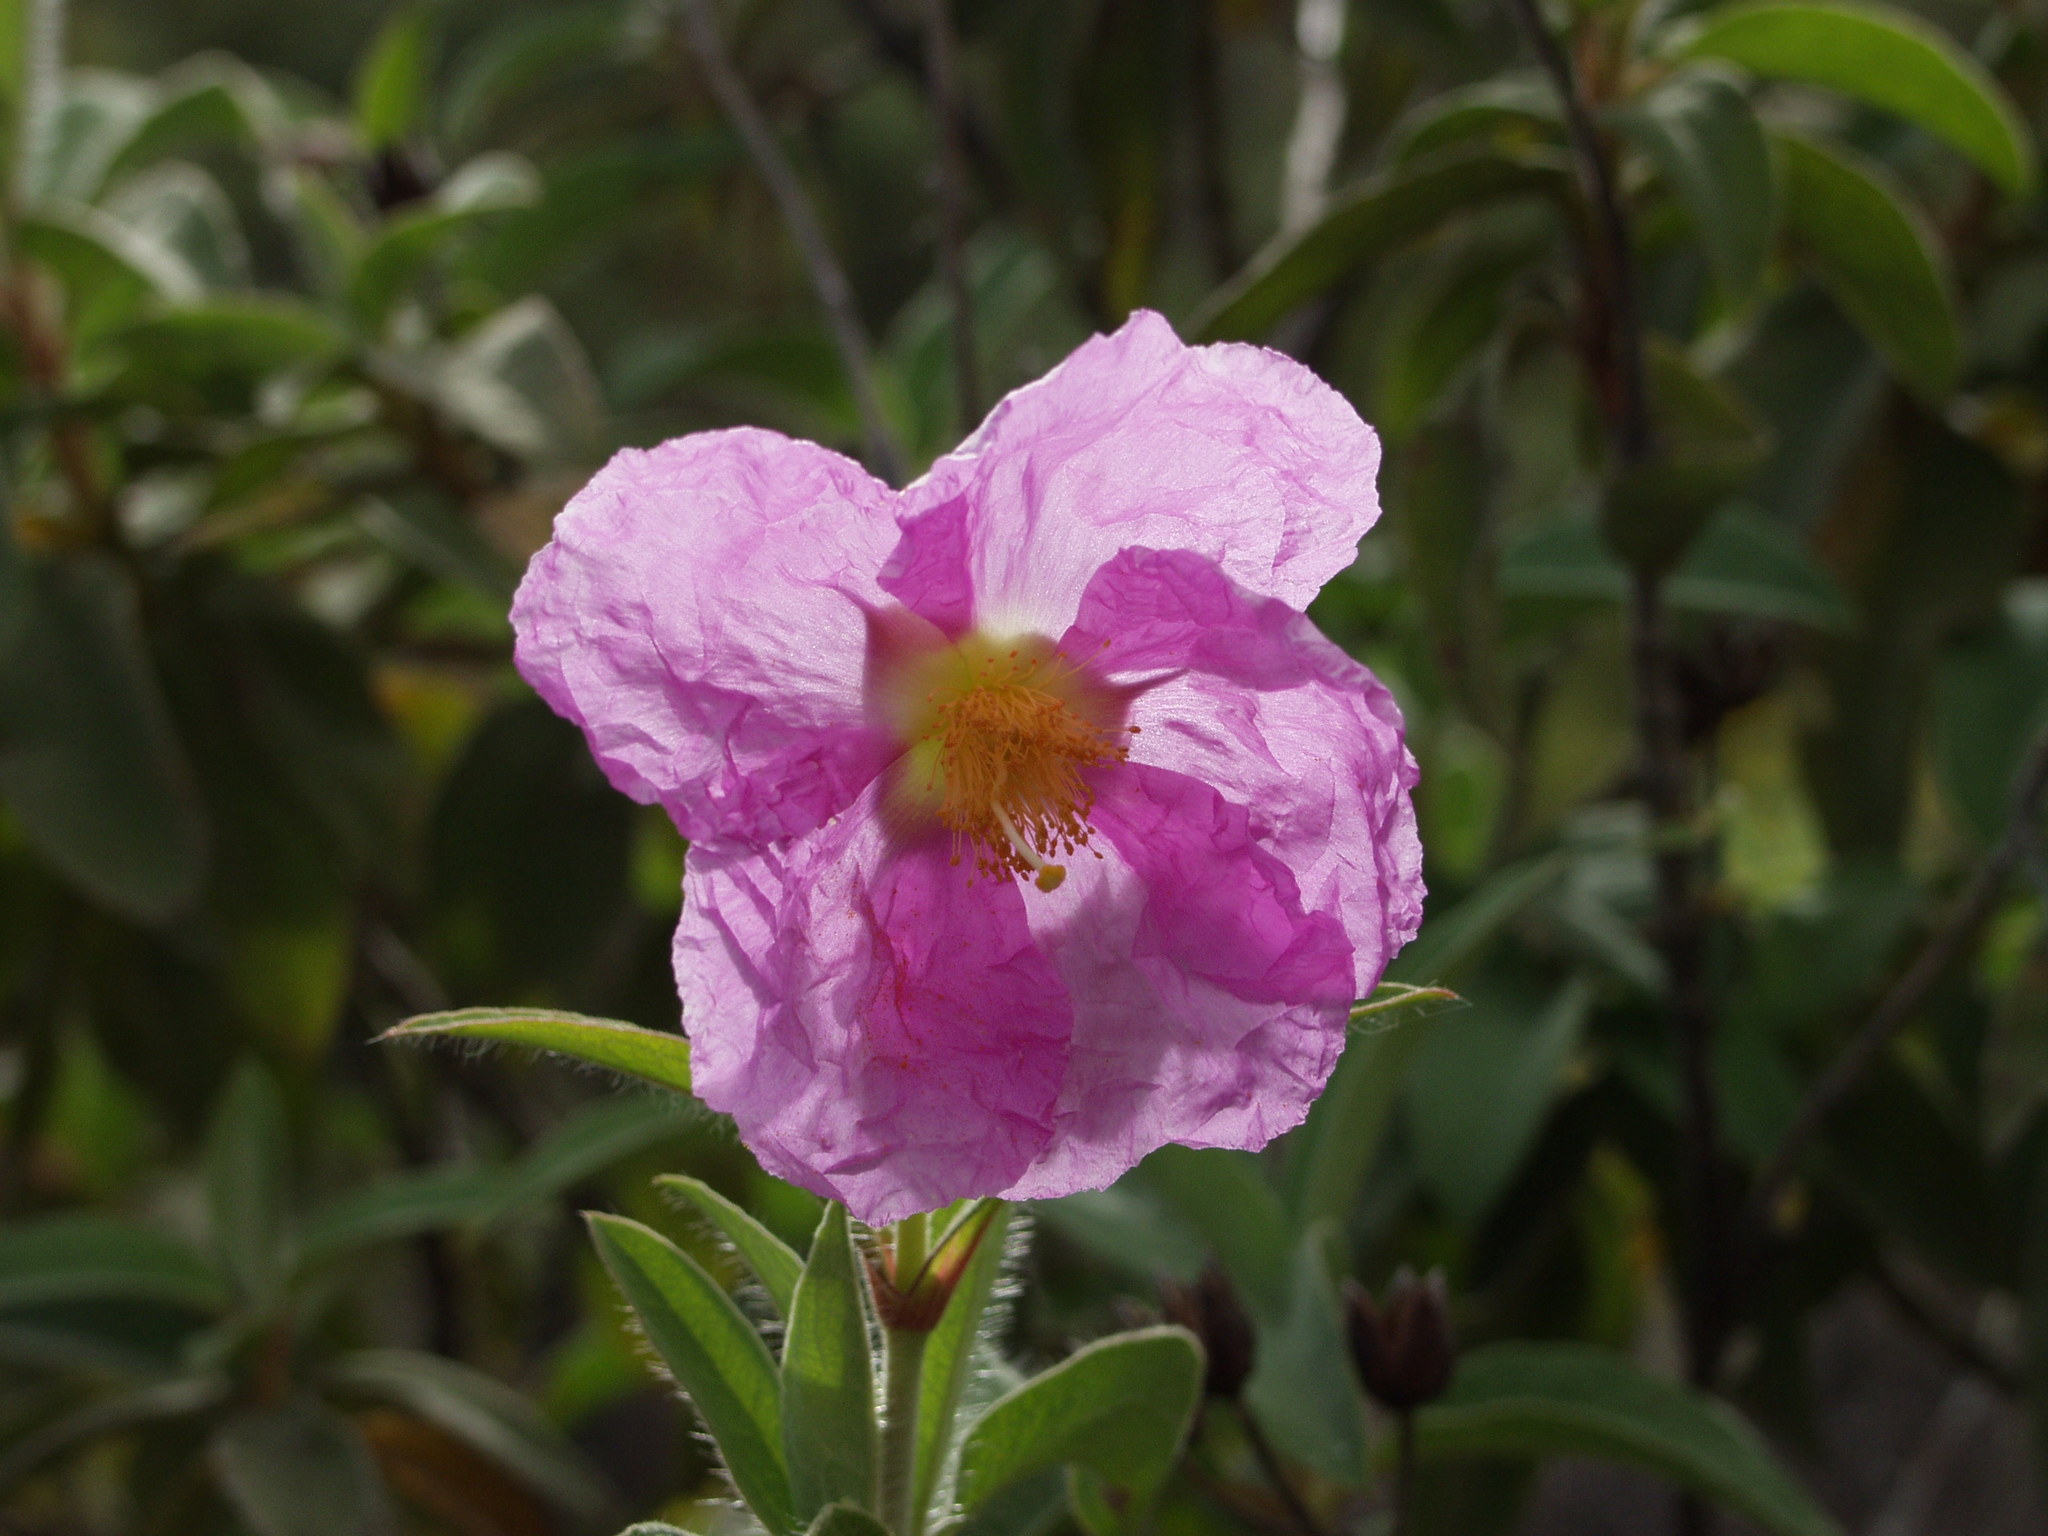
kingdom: Plantae
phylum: Tracheophyta
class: Magnoliopsida
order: Malvales
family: Cistaceae
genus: Cistus
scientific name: Cistus symphytifolius
